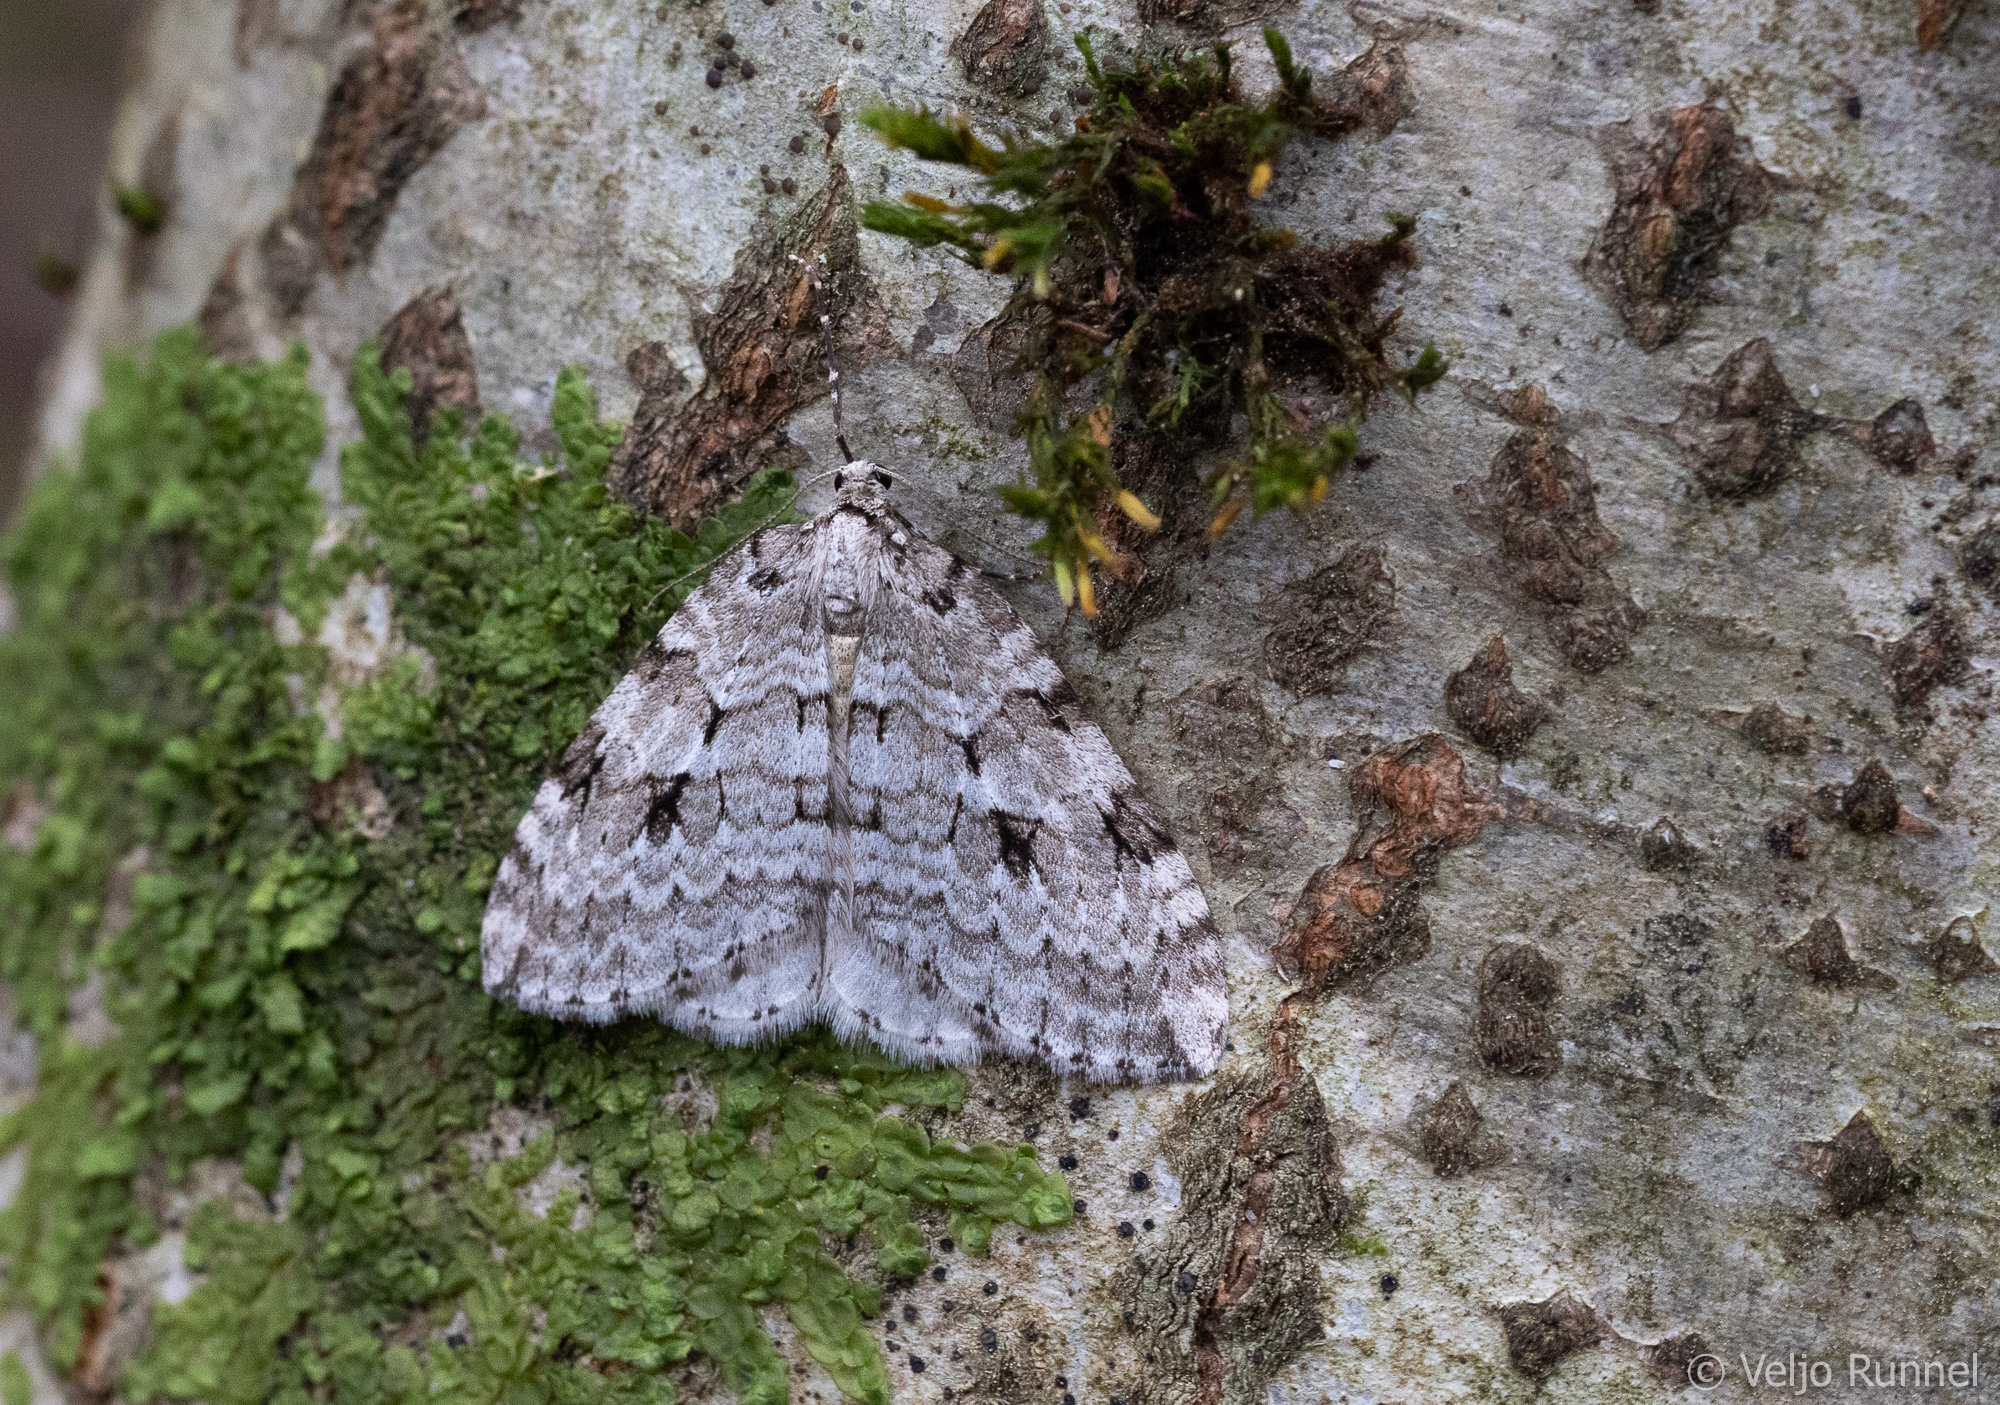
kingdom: Animalia
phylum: Arthropoda
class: Insecta
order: Lepidoptera
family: Geometridae
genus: Epirrita
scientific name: Epirrita autumnata
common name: Autumnal moth
